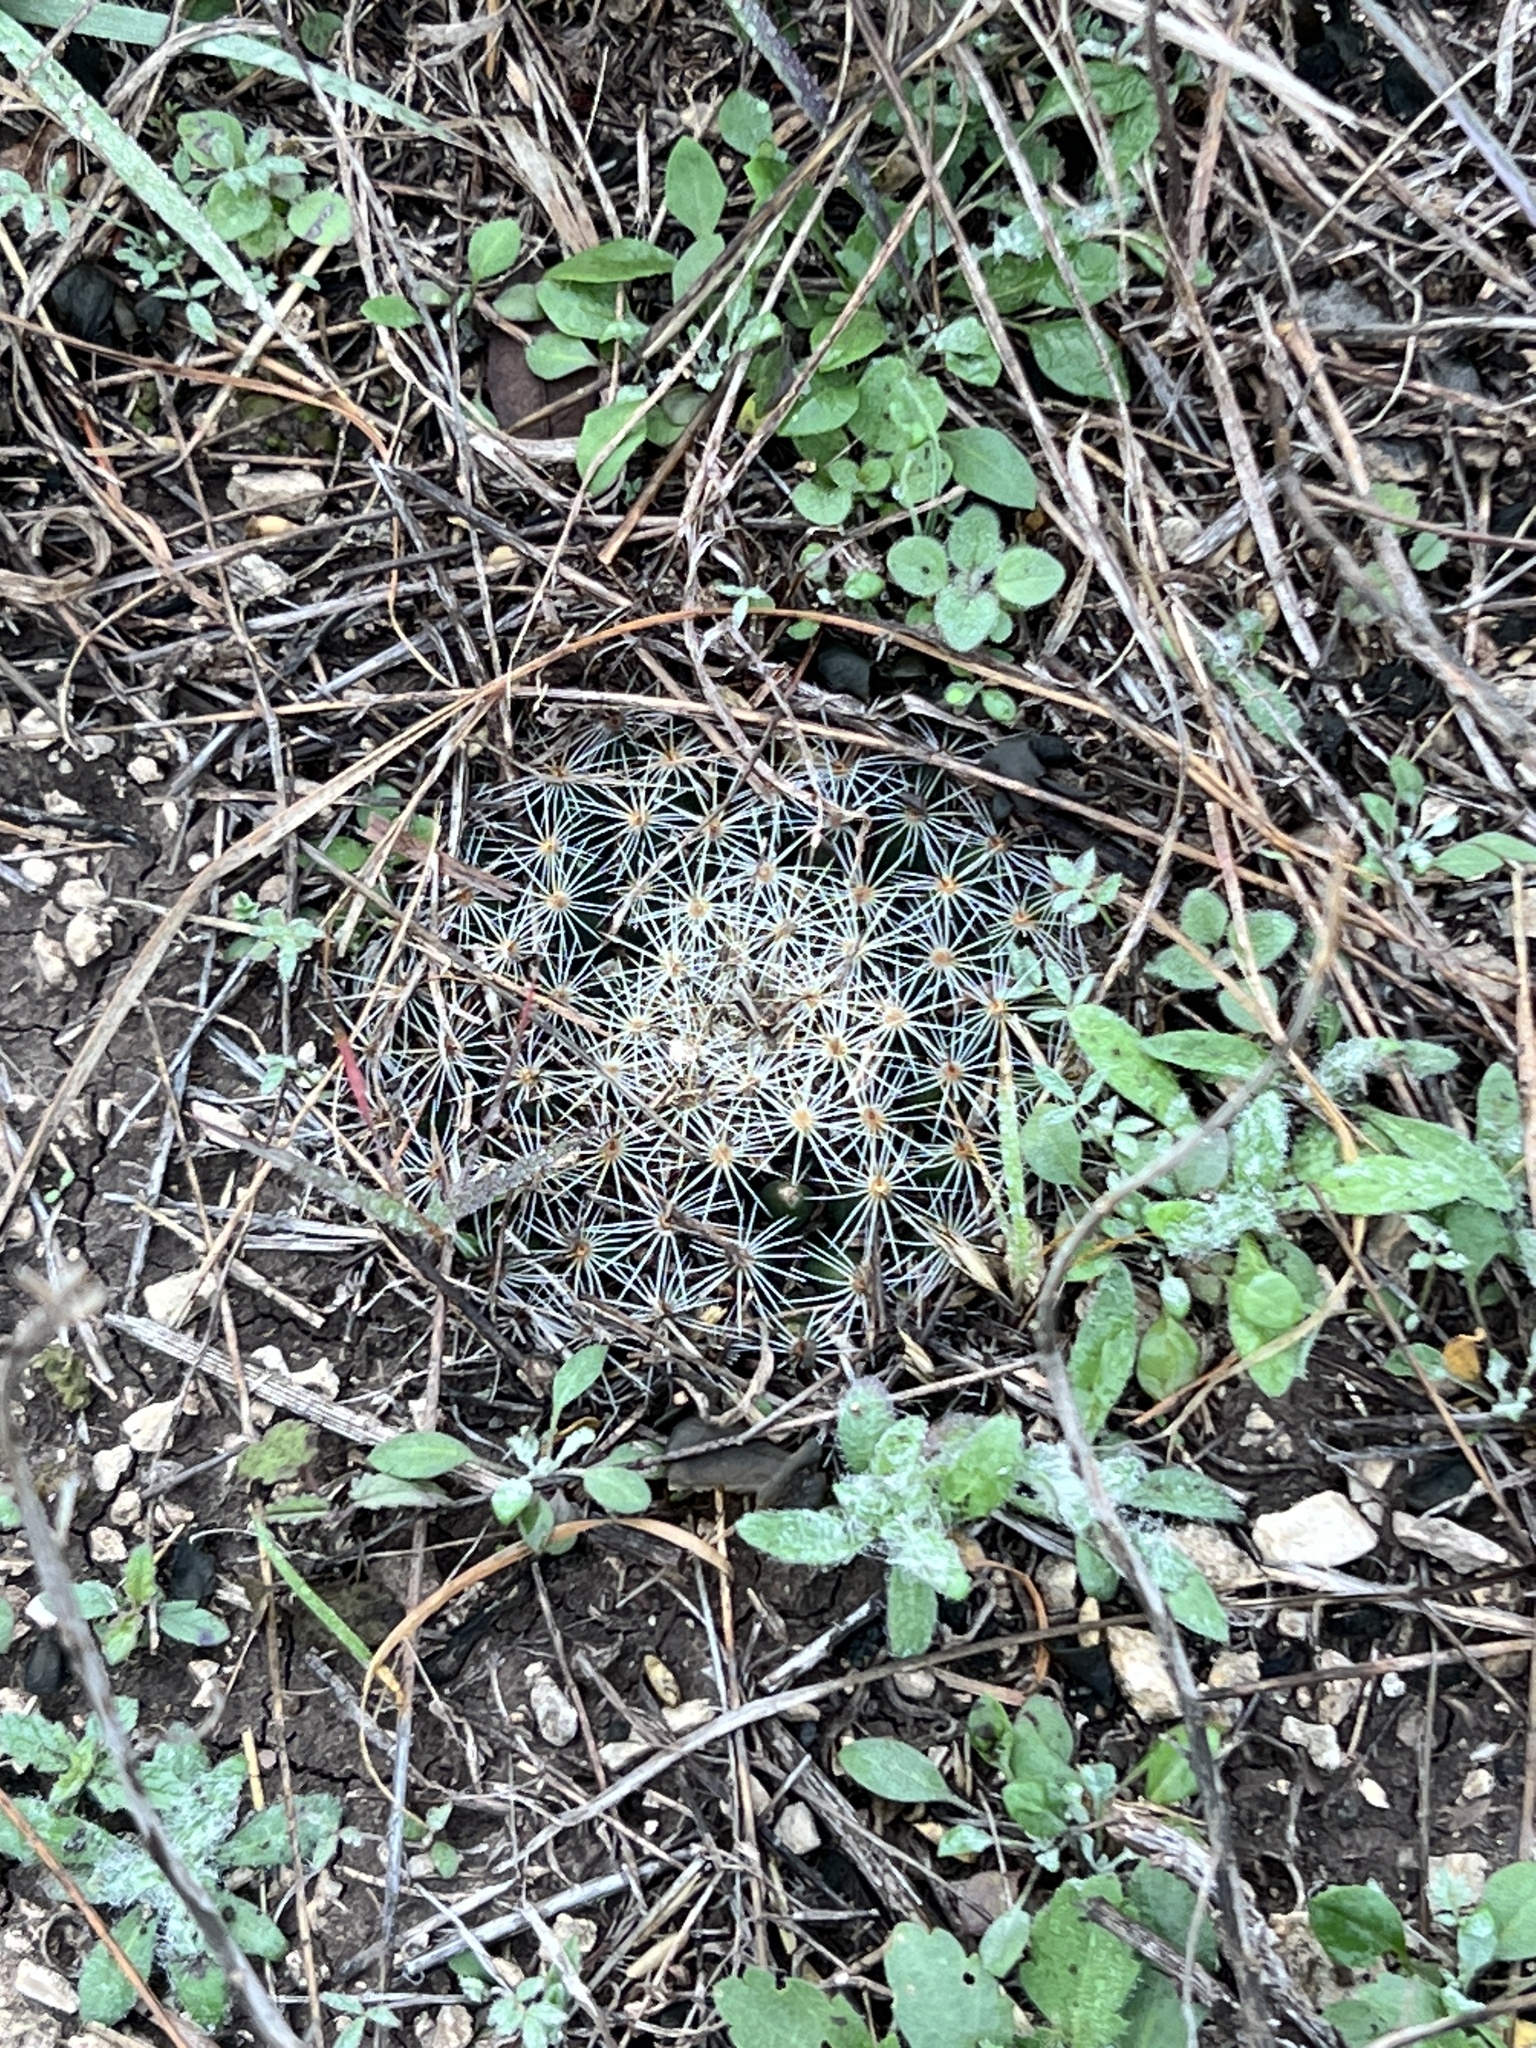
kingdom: Plantae
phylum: Tracheophyta
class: Magnoliopsida
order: Caryophyllales
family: Cactaceae
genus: Mammillaria
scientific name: Mammillaria heyderi
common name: Little nipple cactus
